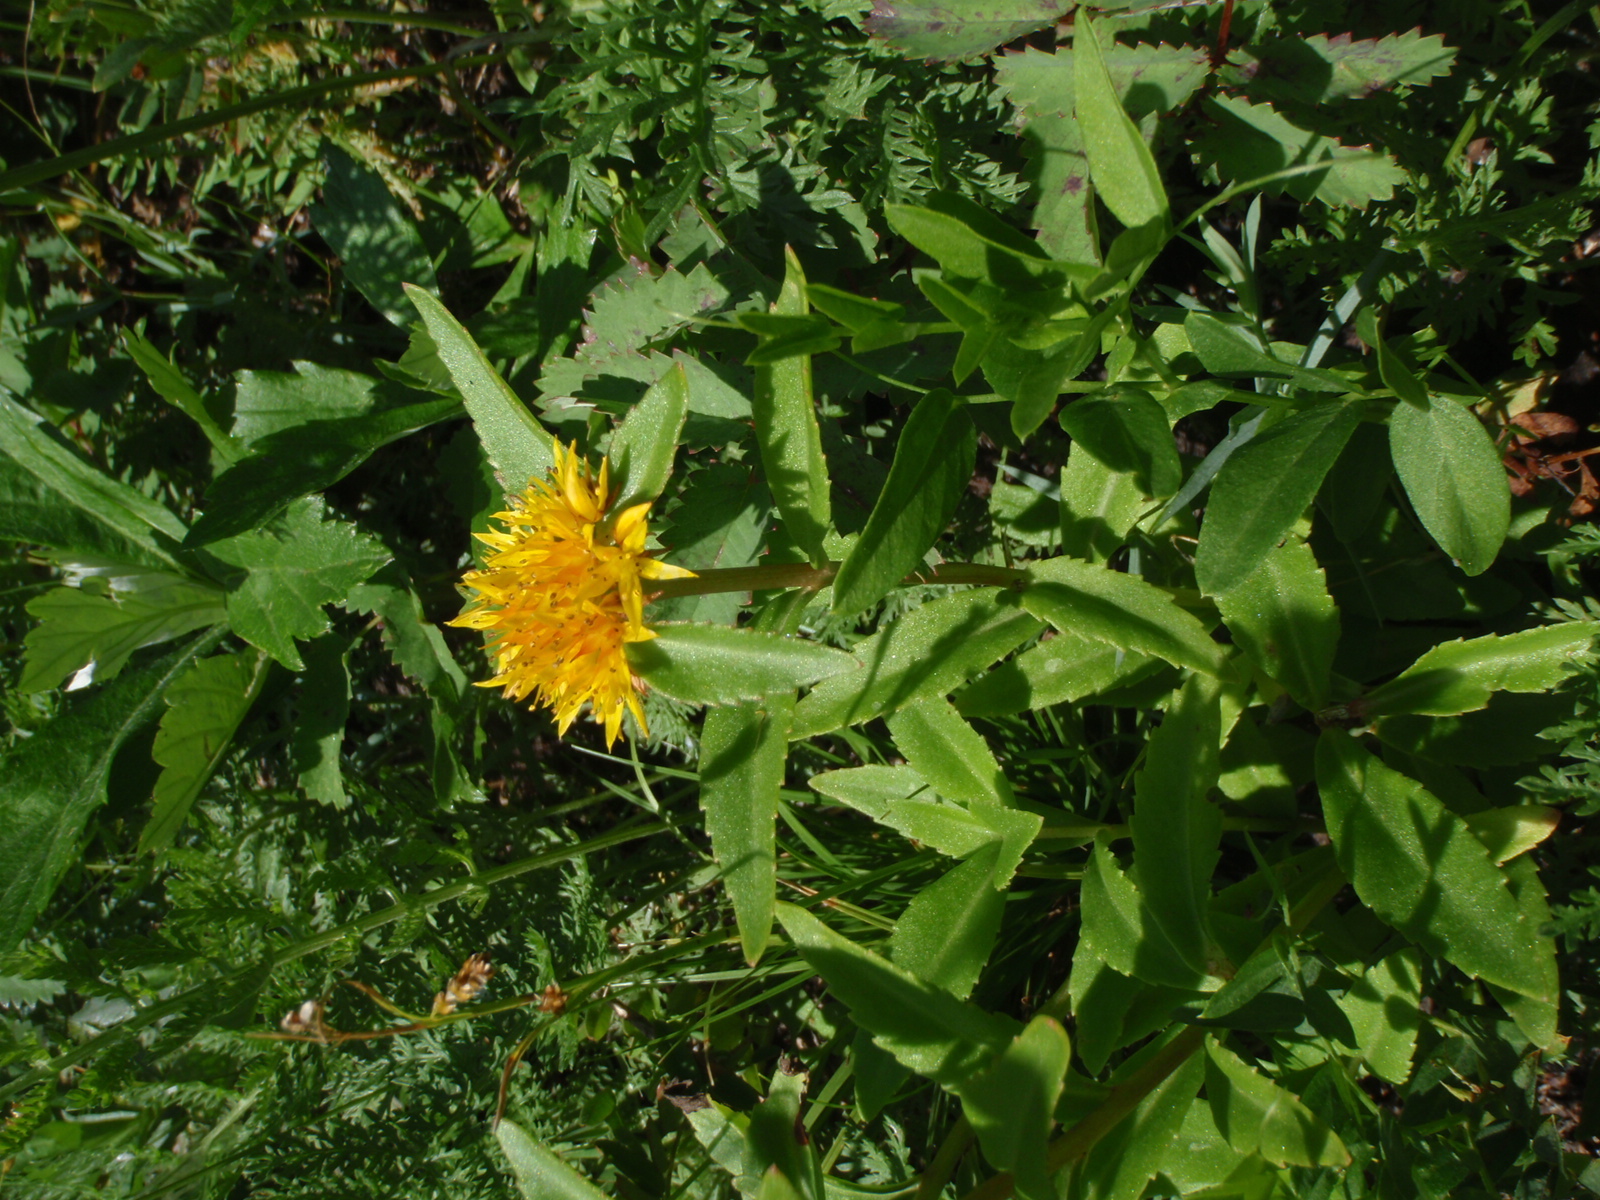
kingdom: Plantae
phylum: Tracheophyta
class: Magnoliopsida
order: Saxifragales
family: Crassulaceae
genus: Phedimus
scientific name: Phedimus aizoon
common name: Orpin aizoon
